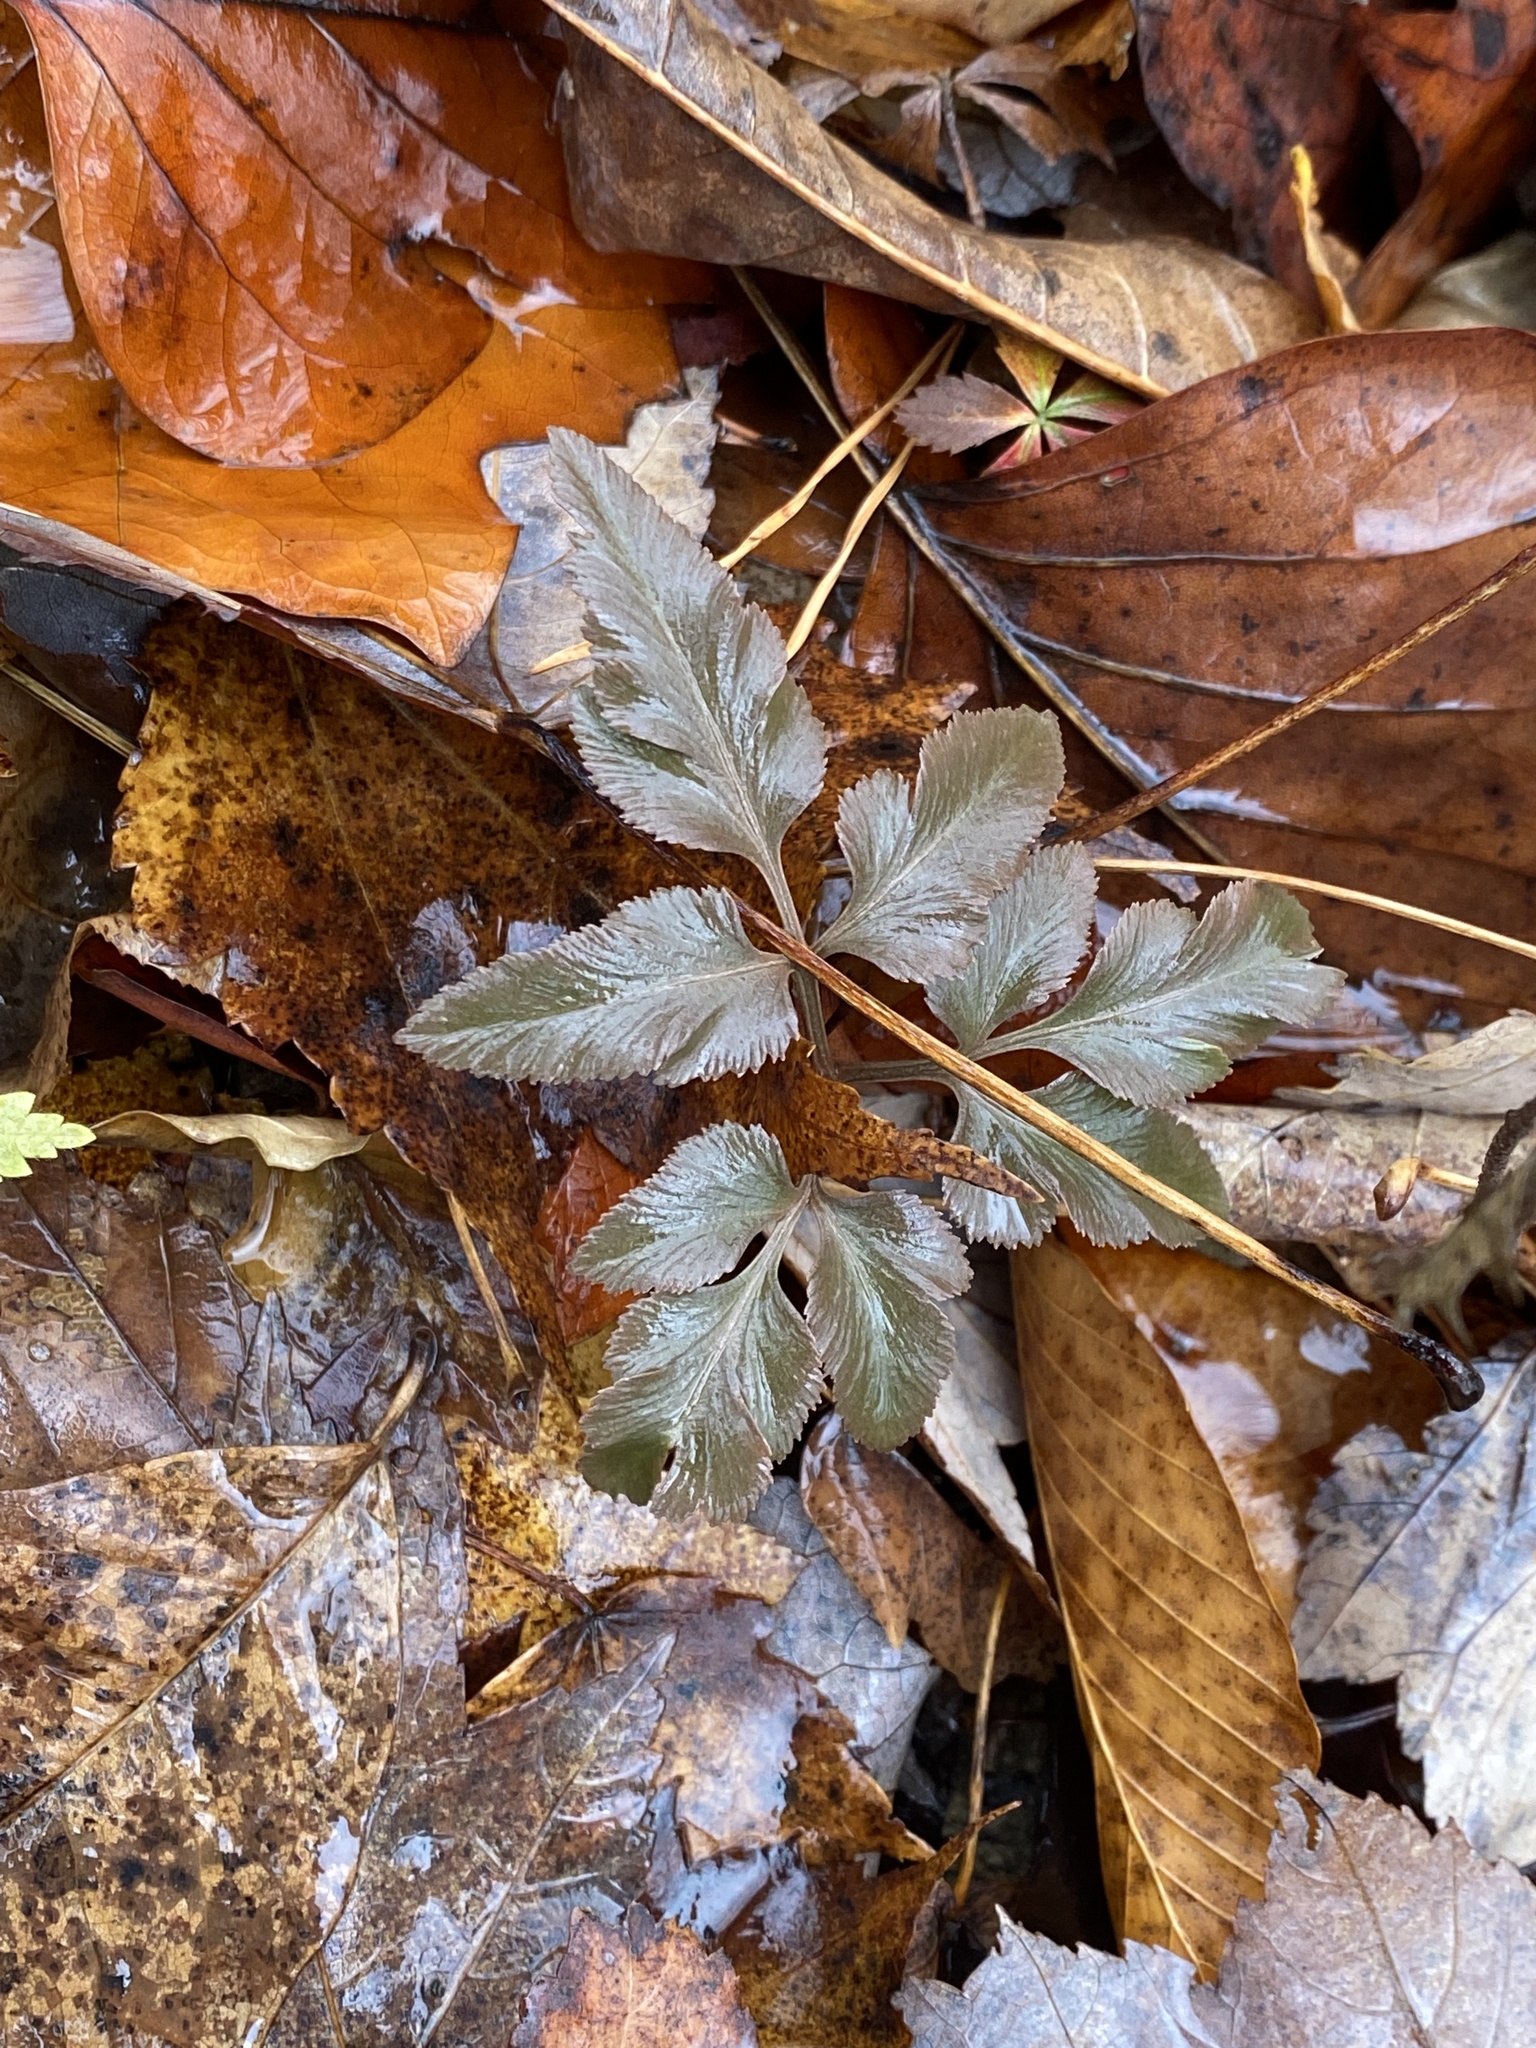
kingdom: Plantae
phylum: Tracheophyta
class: Polypodiopsida
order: Ophioglossales
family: Ophioglossaceae
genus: Sceptridium
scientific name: Sceptridium dissectum
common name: Cut-leaved grapefern
